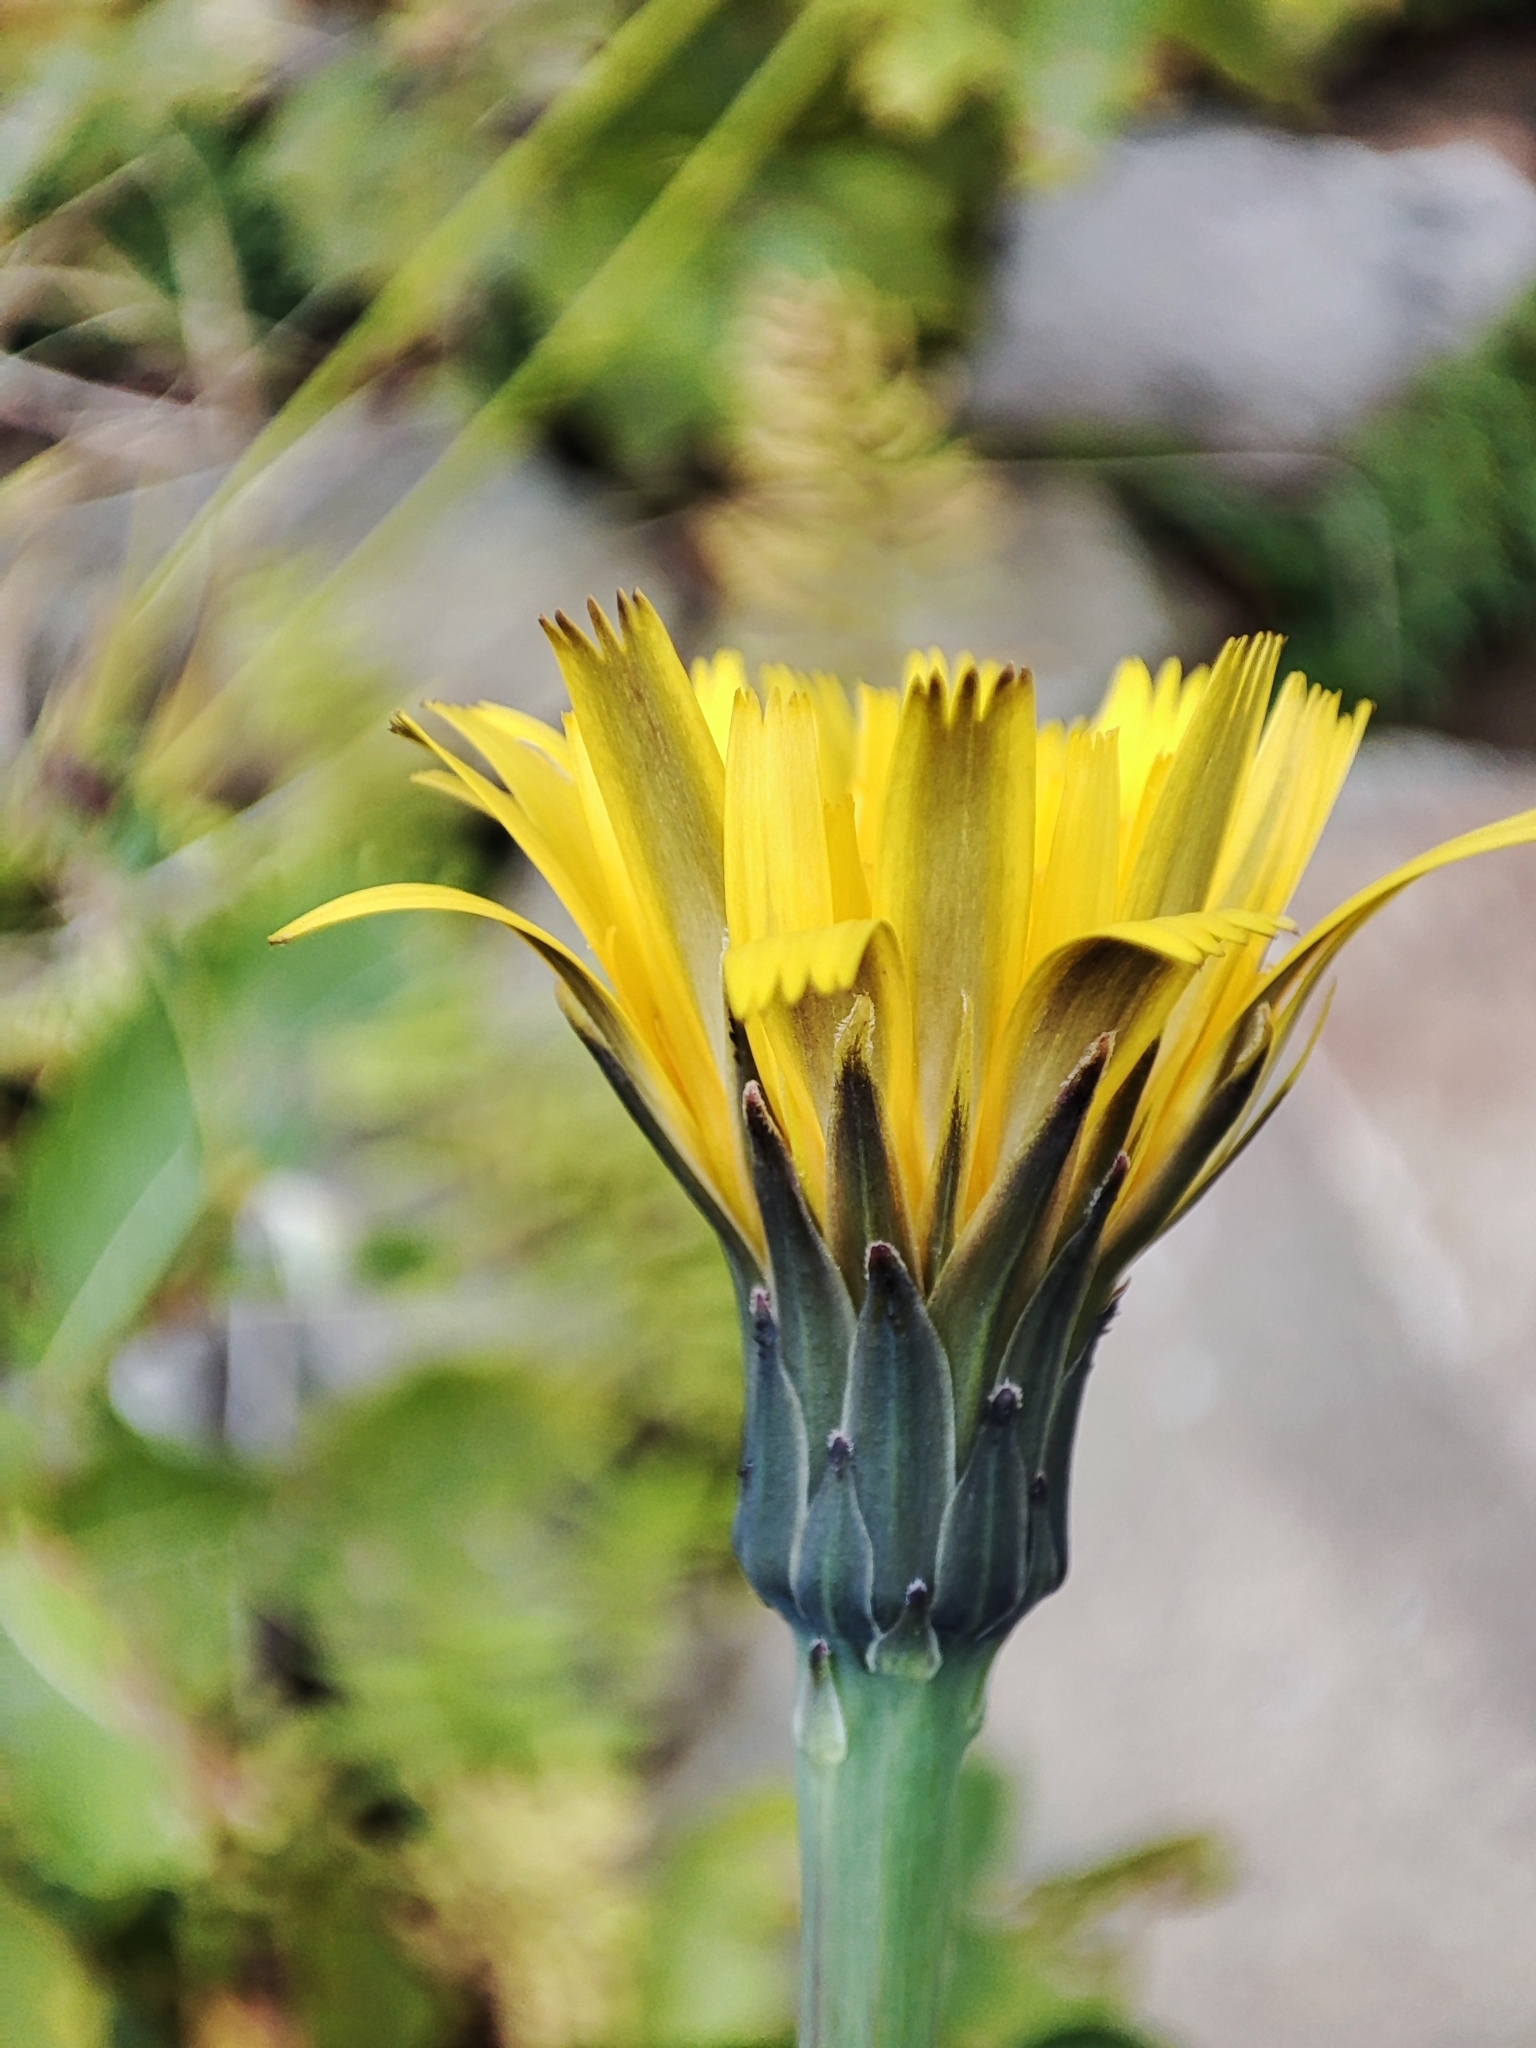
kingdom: Plantae
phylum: Tracheophyta
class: Magnoliopsida
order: Asterales
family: Asteraceae
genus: Hypochaeris
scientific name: Hypochaeris radicata
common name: Flatweed
